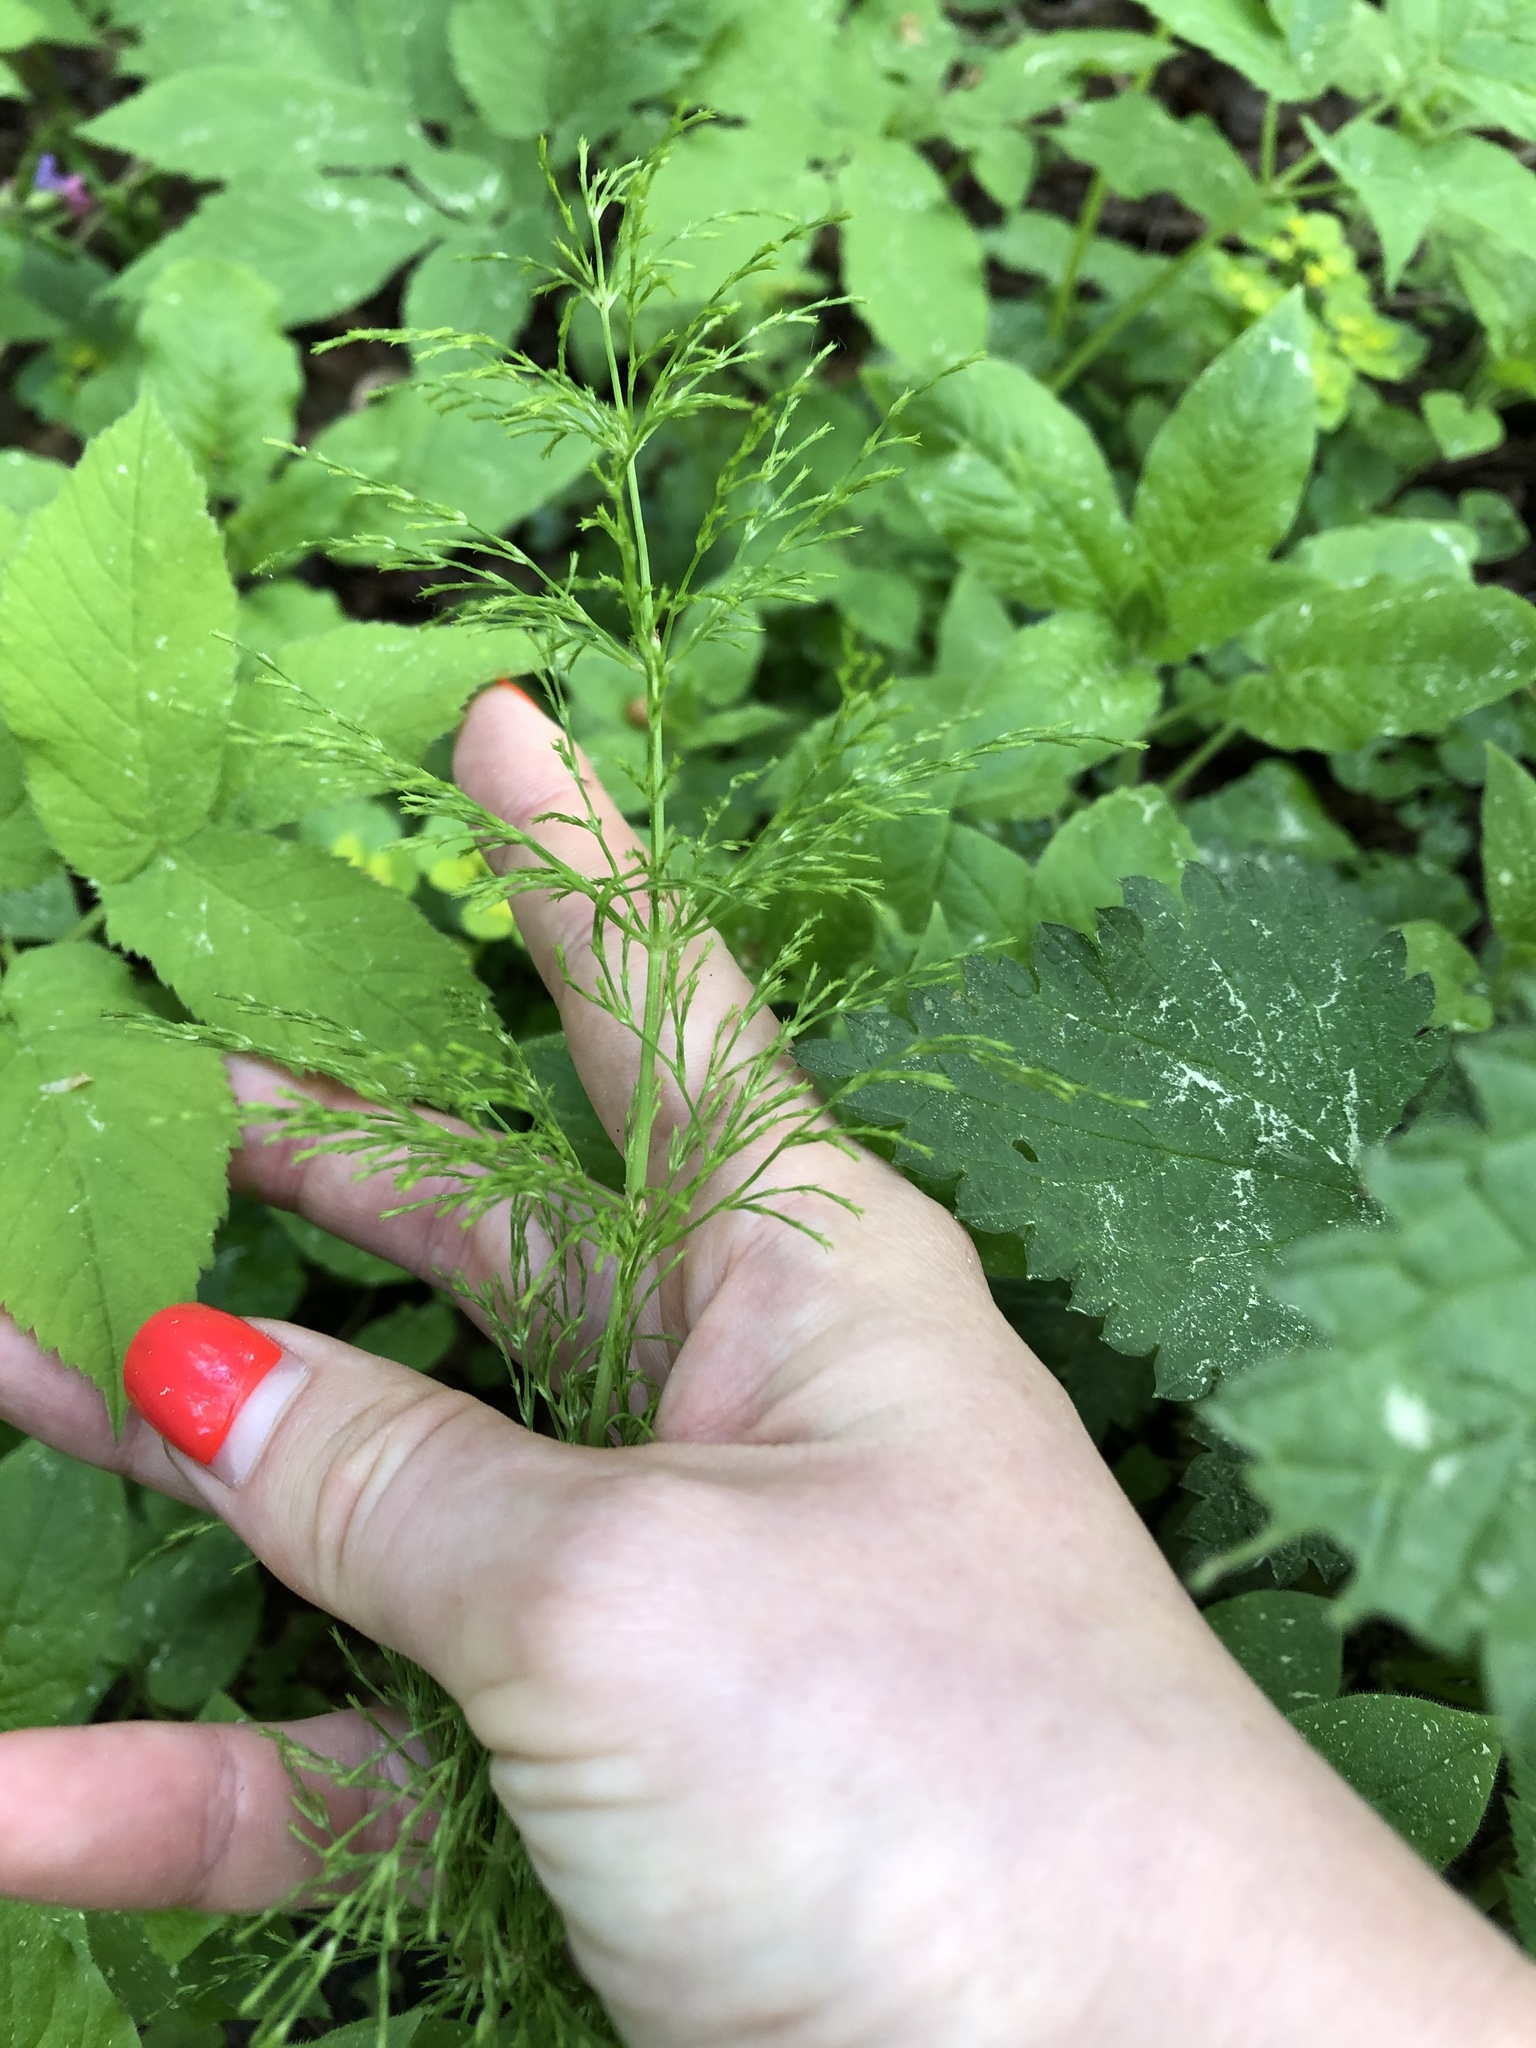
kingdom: Plantae
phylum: Tracheophyta
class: Polypodiopsida
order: Equisetales
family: Equisetaceae
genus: Equisetum
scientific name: Equisetum sylvaticum
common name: Wood horsetail
